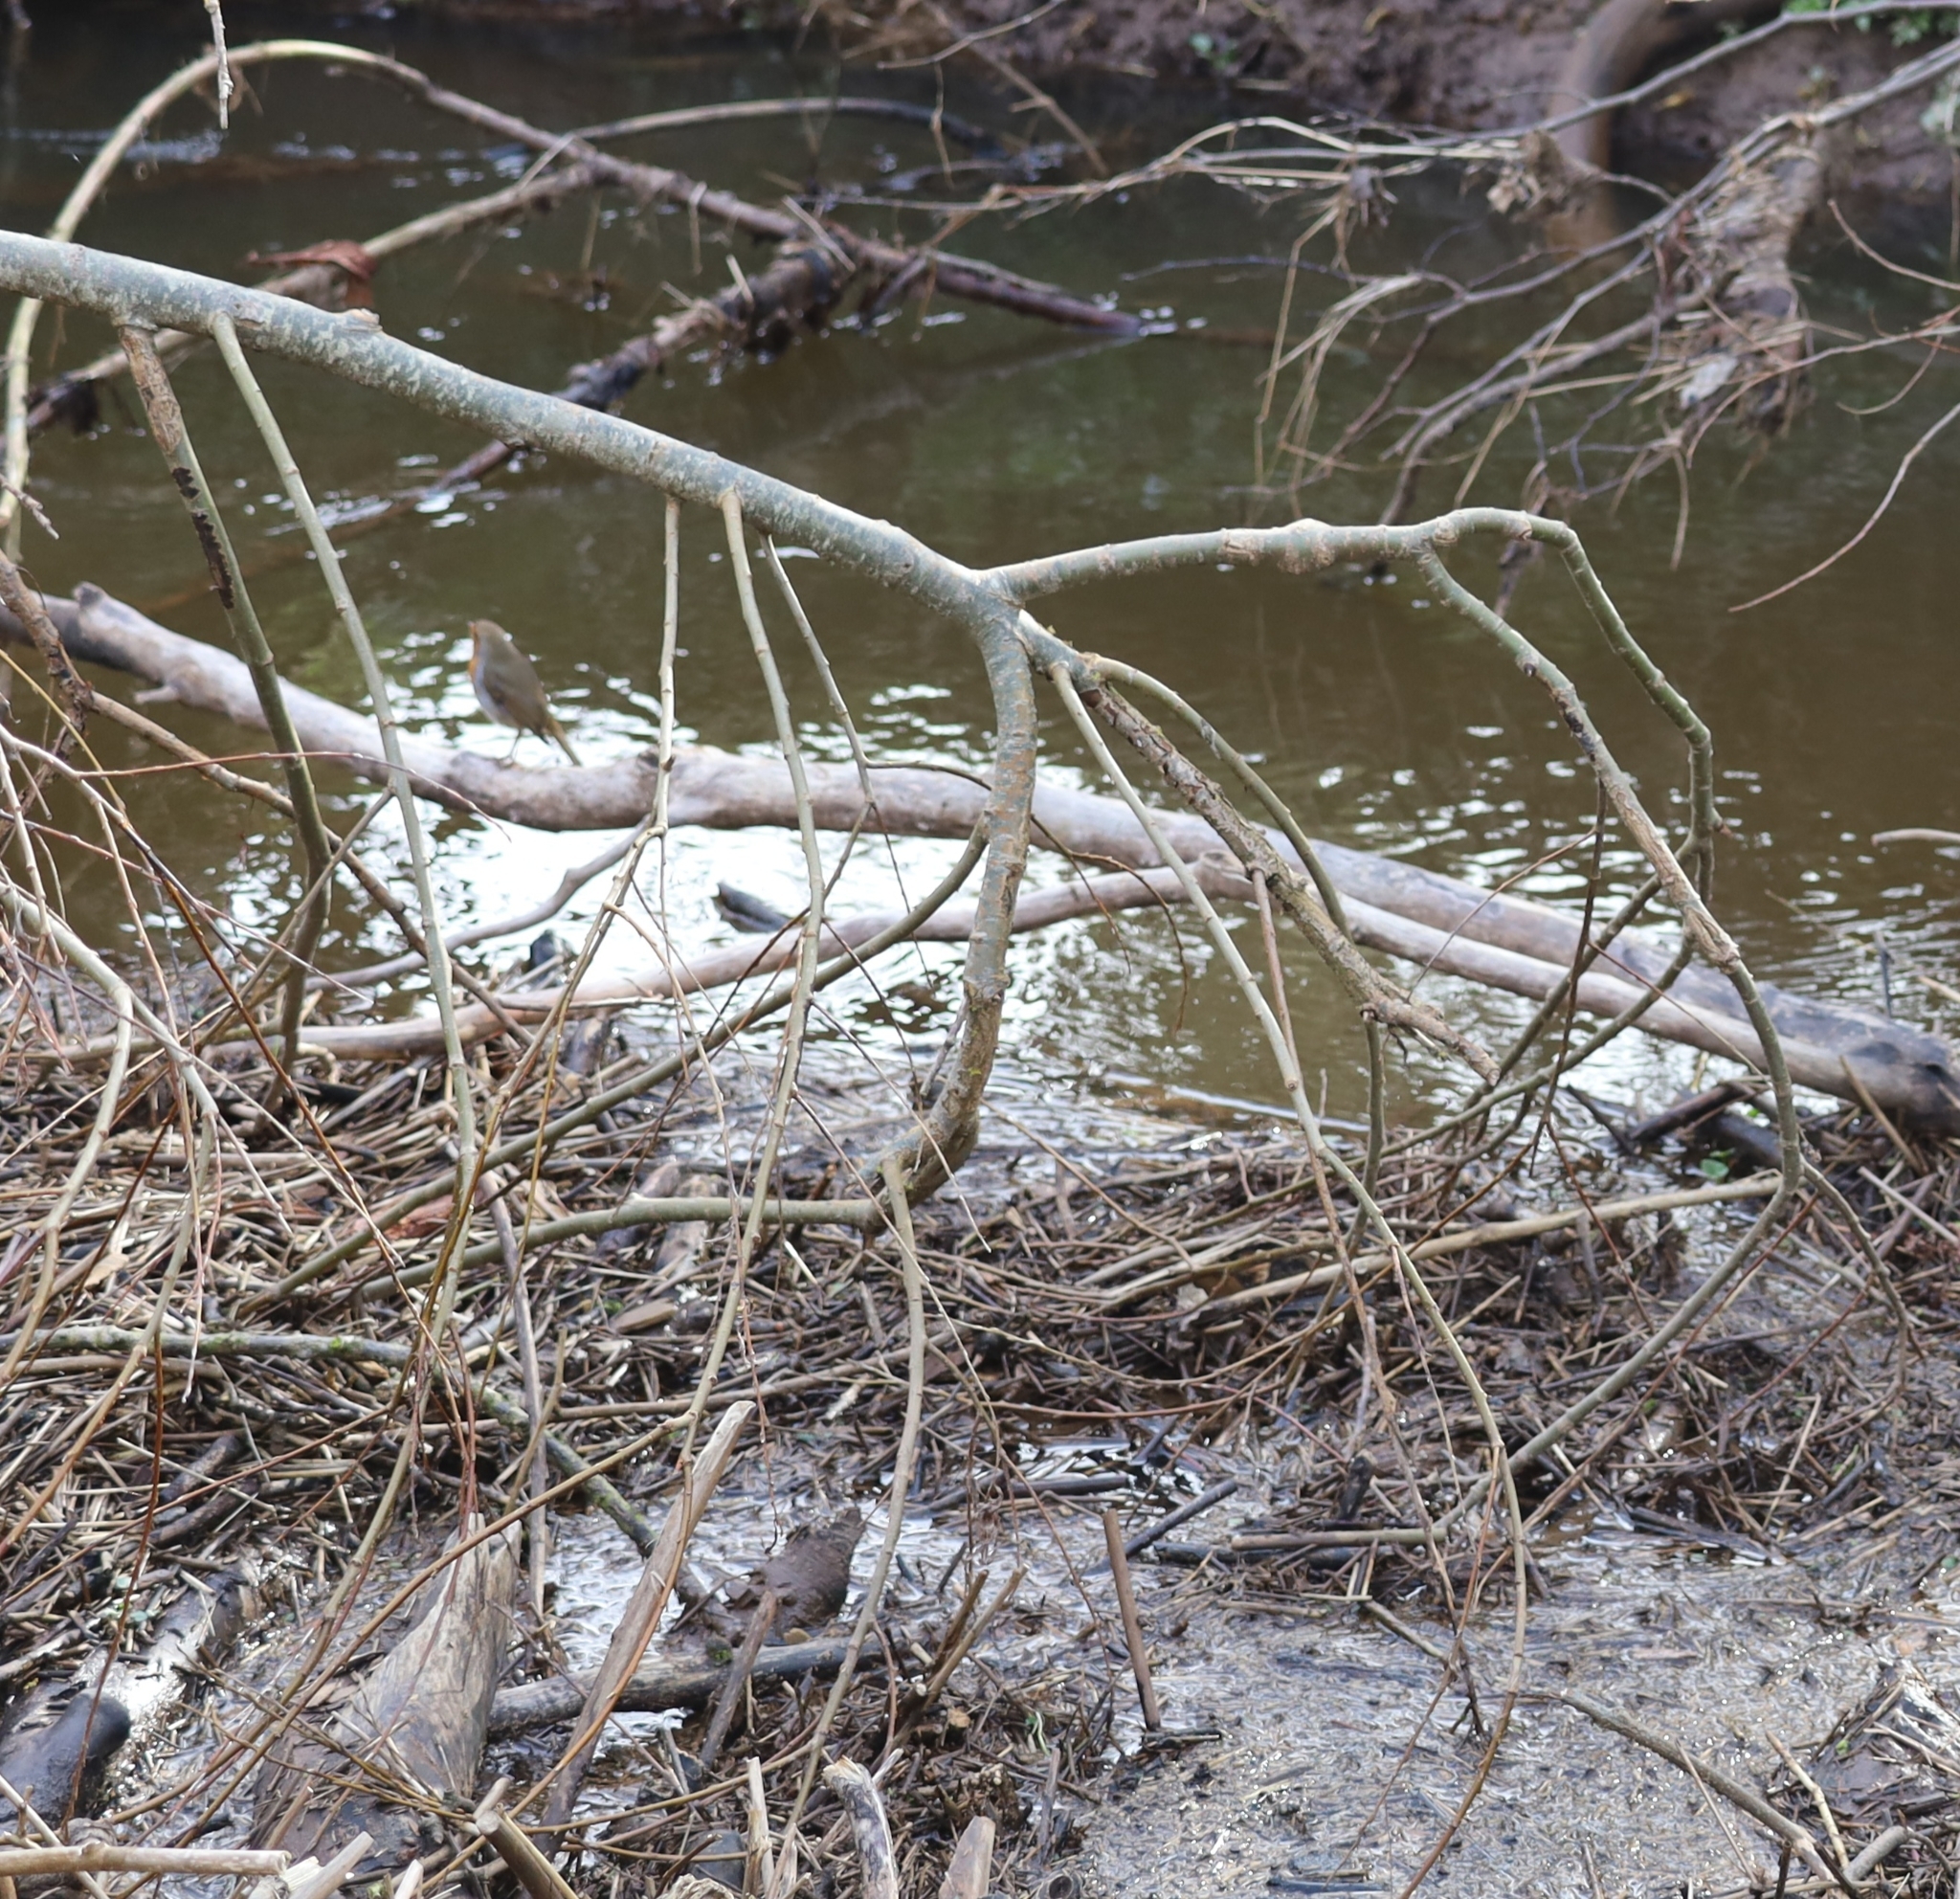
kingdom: Animalia
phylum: Chordata
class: Aves
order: Passeriformes
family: Muscicapidae
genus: Erithacus
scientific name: Erithacus rubecula
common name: European robin
